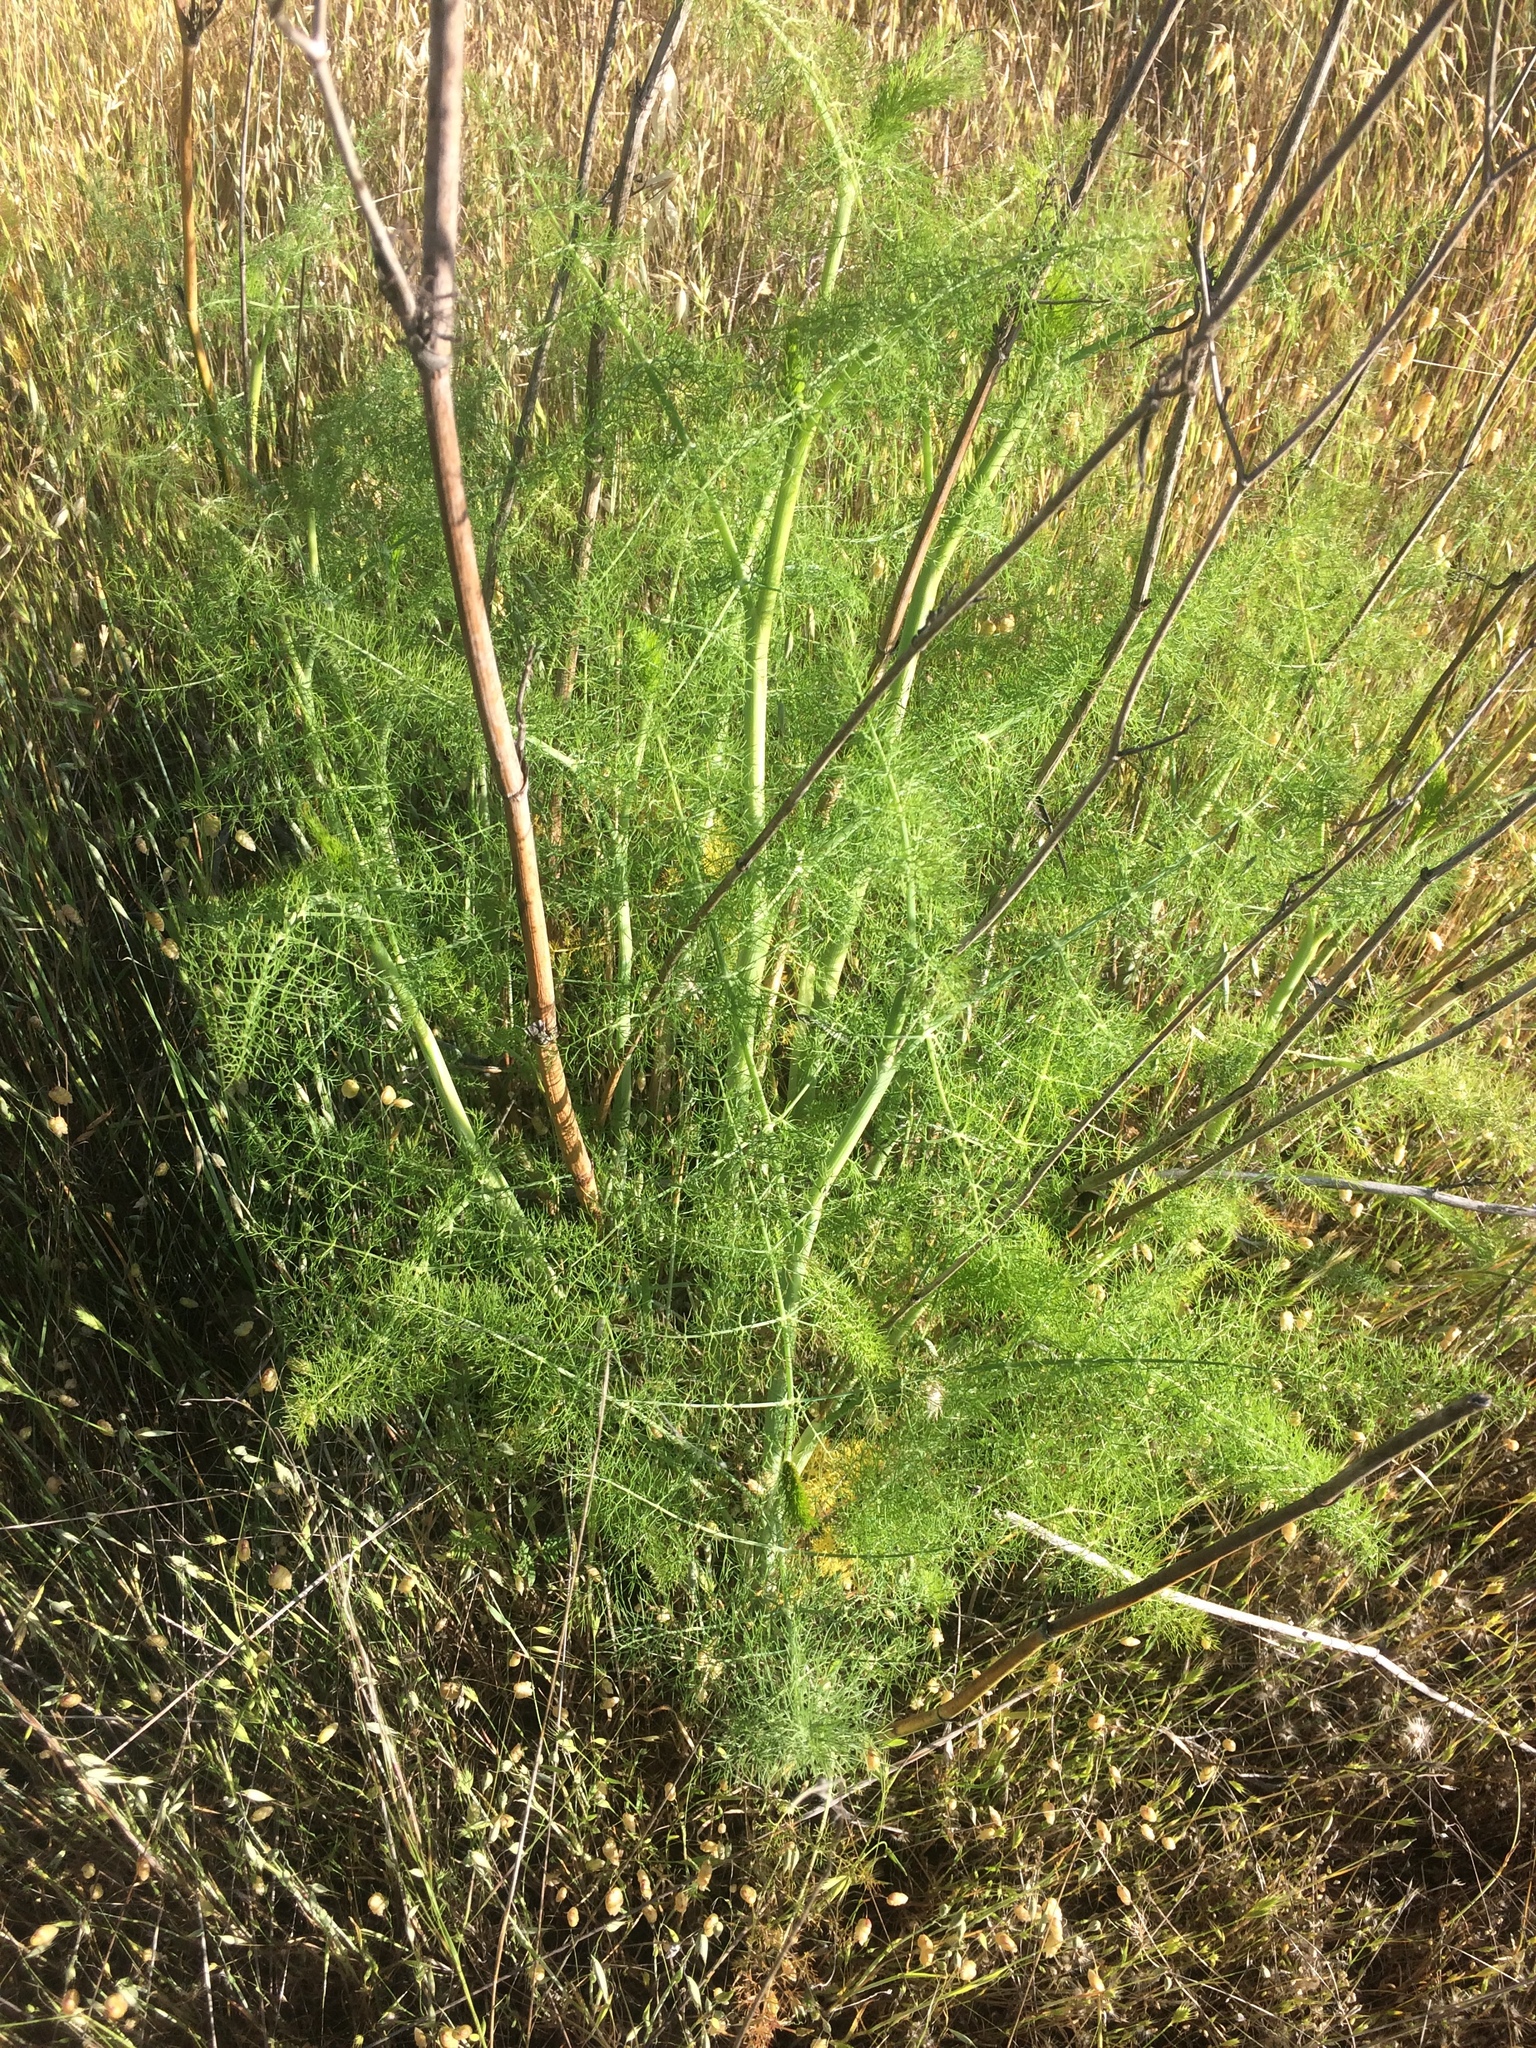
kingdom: Plantae
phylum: Tracheophyta
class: Magnoliopsida
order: Apiales
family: Apiaceae
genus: Foeniculum
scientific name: Foeniculum vulgare
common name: Fennel
